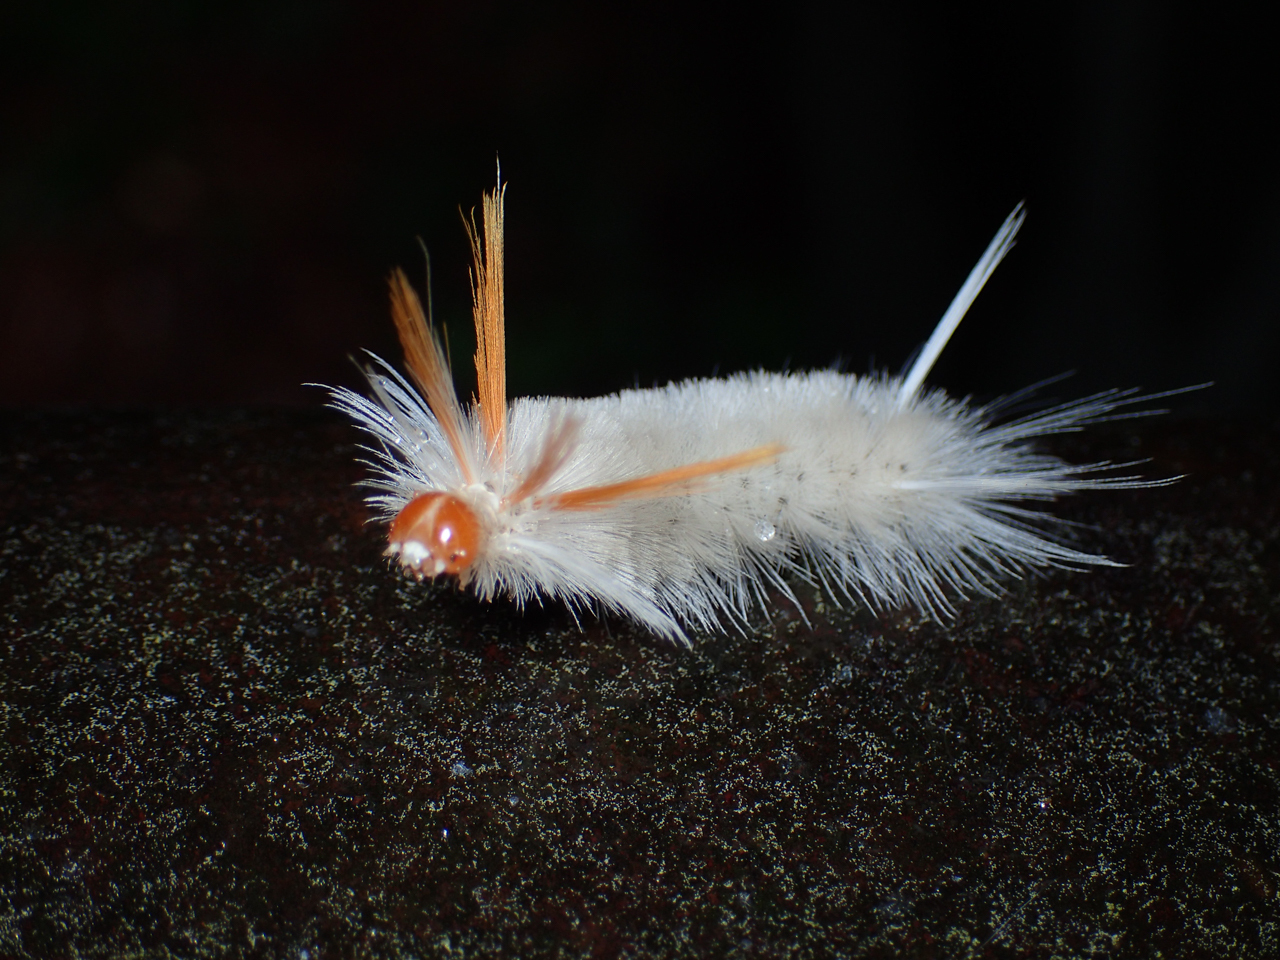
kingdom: Animalia
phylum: Arthropoda
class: Insecta
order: Lepidoptera
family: Erebidae
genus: Halysidota
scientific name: Halysidota harrisii
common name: Sycamore tussock moth
